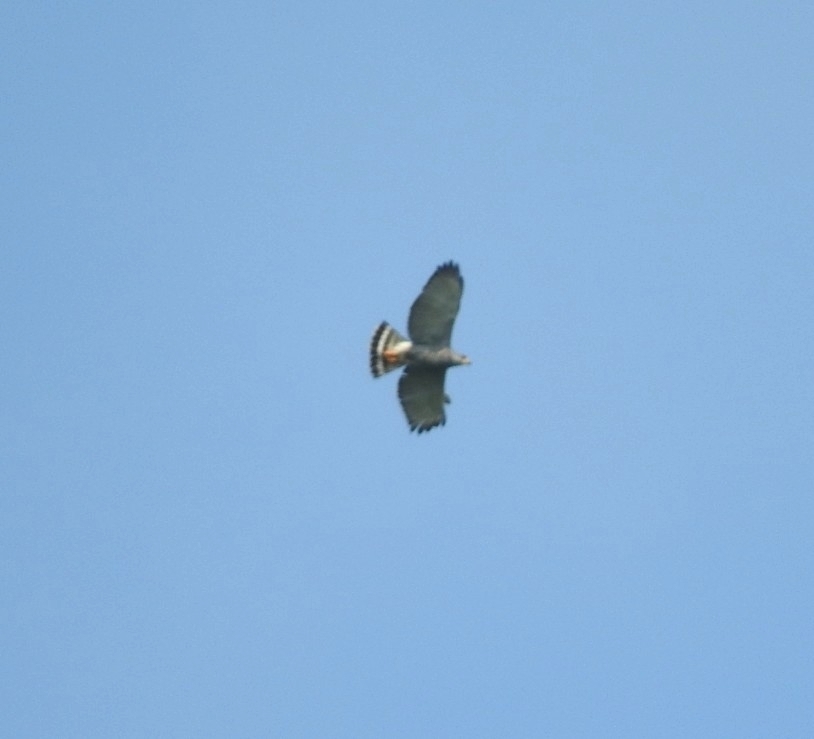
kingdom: Animalia
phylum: Chordata
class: Aves
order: Accipitriformes
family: Accipitridae
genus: Buteo
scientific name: Buteo nitidus
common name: Grey-lined hawk
